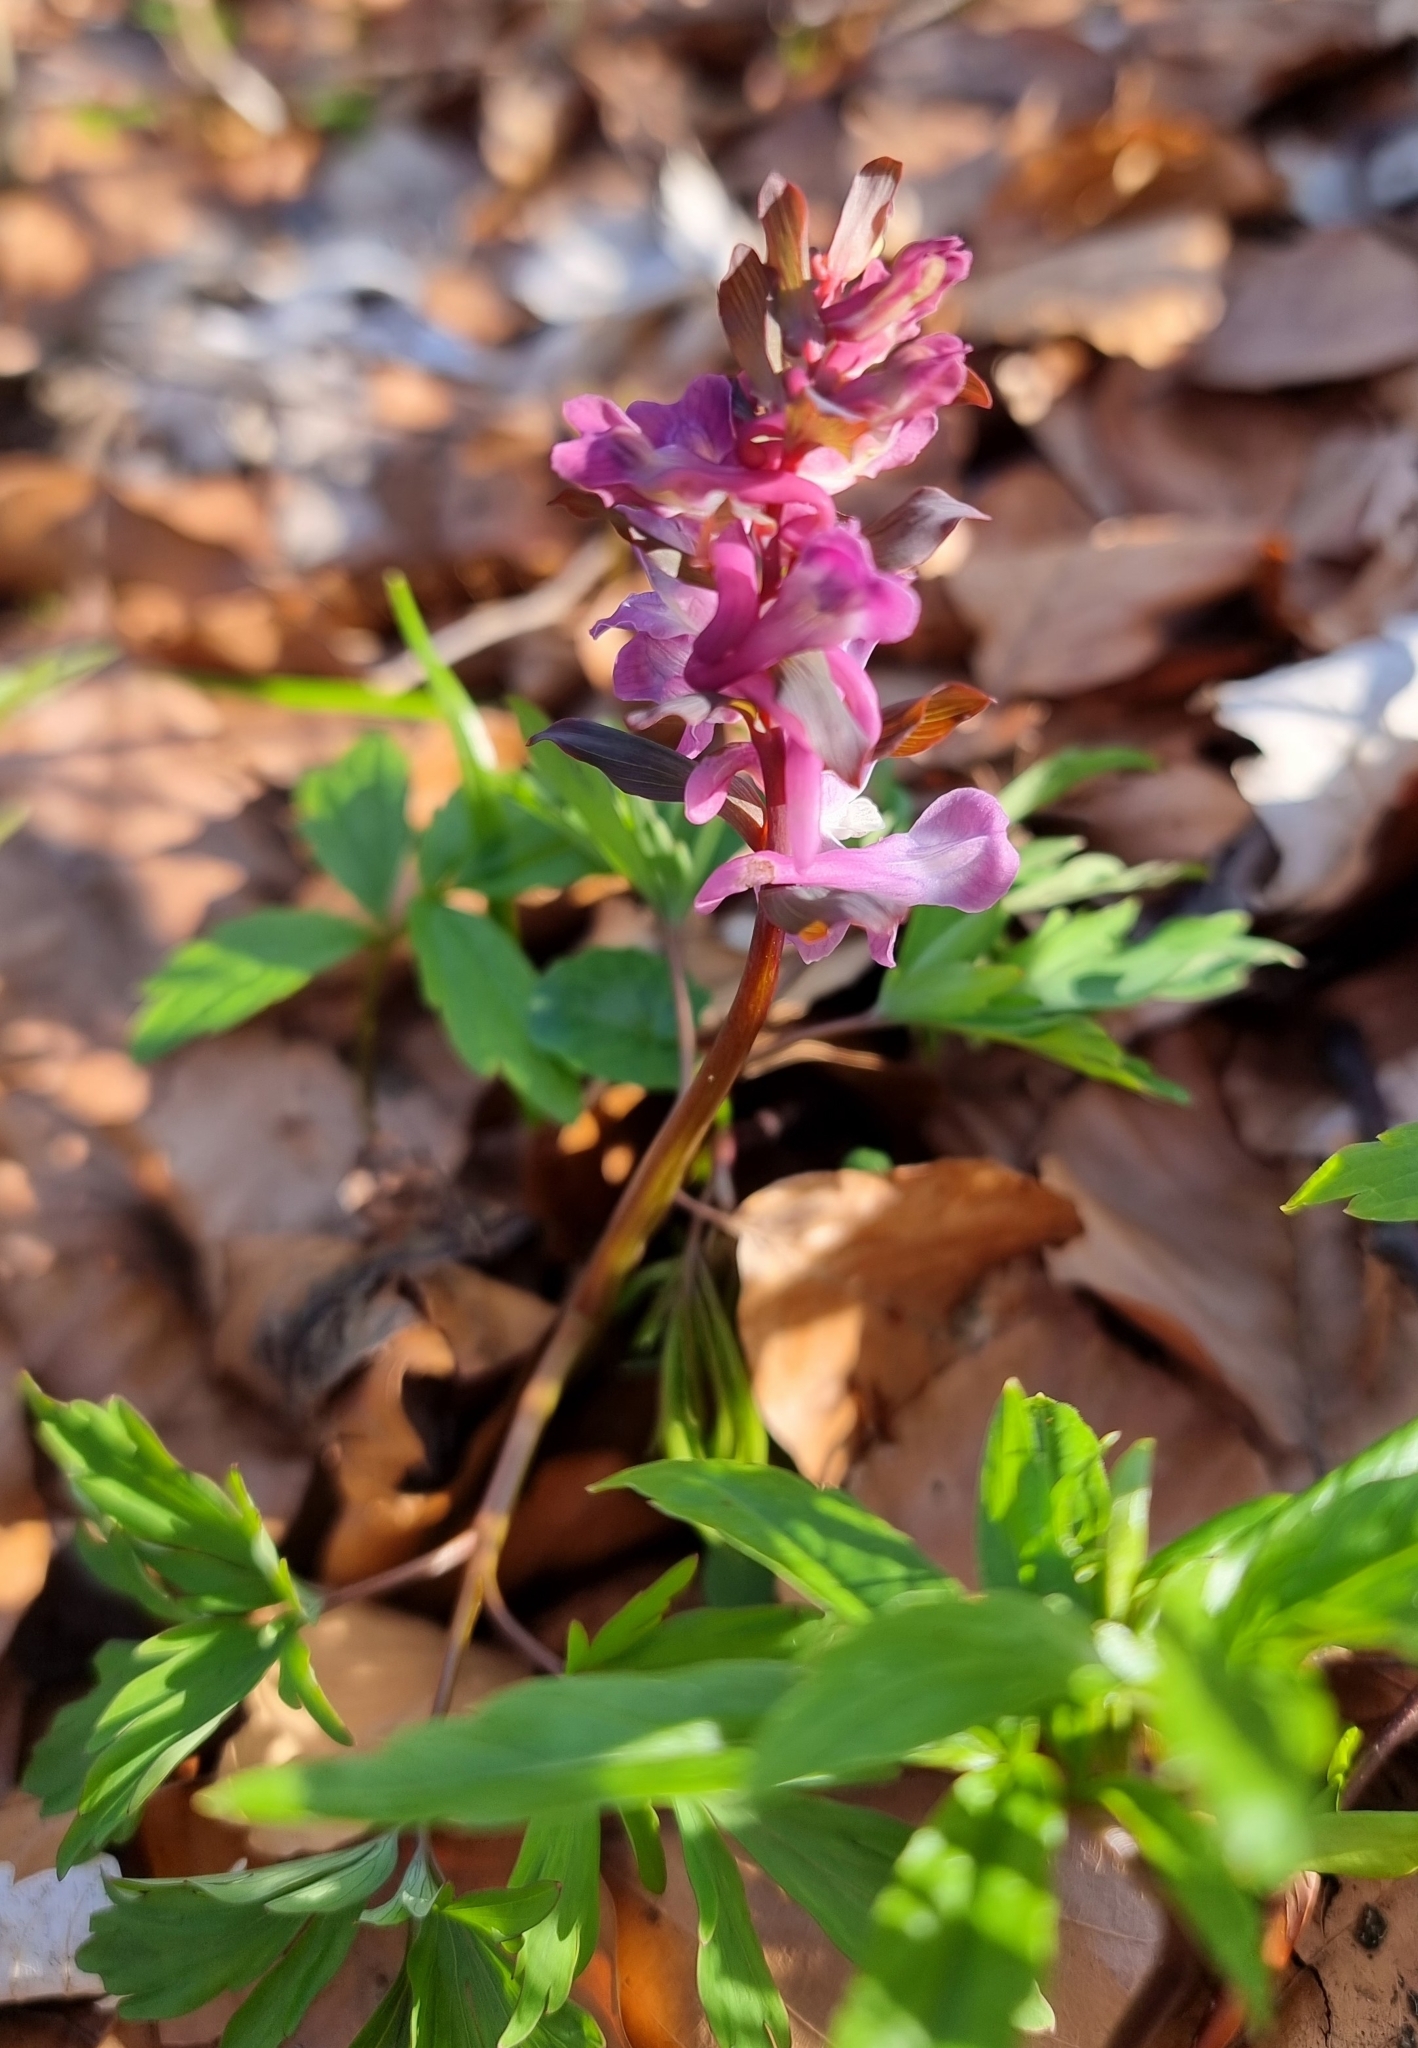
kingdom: Plantae
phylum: Tracheophyta
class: Magnoliopsida
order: Ranunculales
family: Papaveraceae
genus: Corydalis
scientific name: Corydalis cava
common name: Hollowroot
